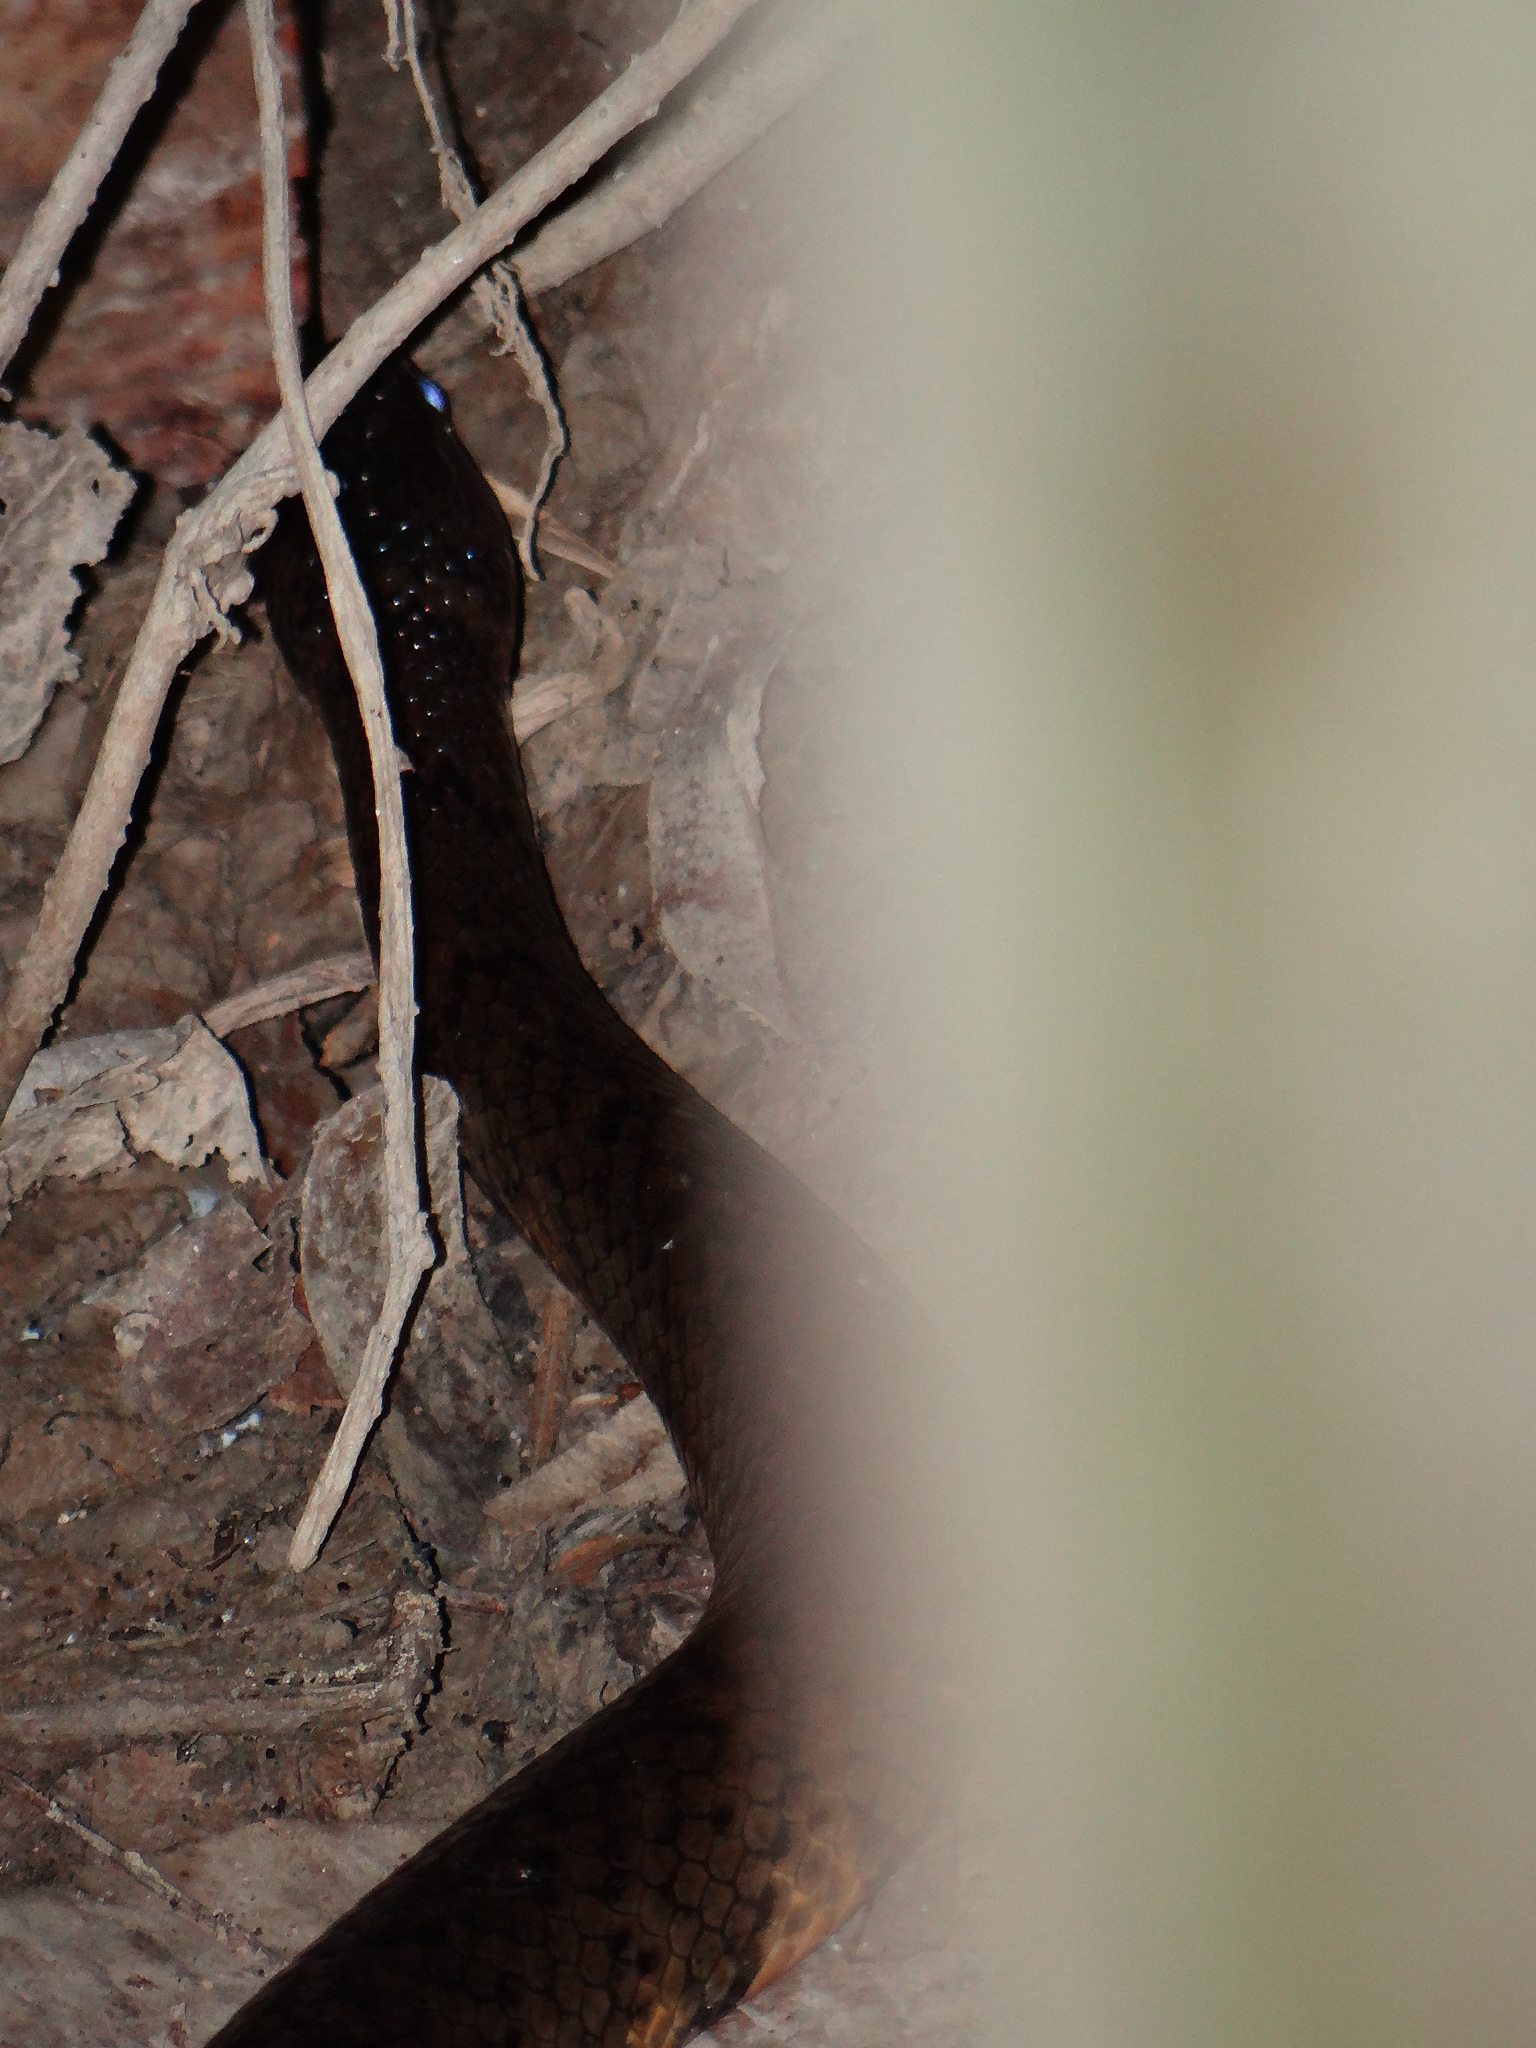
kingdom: Animalia
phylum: Chordata
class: Squamata
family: Colubridae
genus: Spilotes
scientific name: Spilotes sulphureus
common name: Amazon puffing snake
